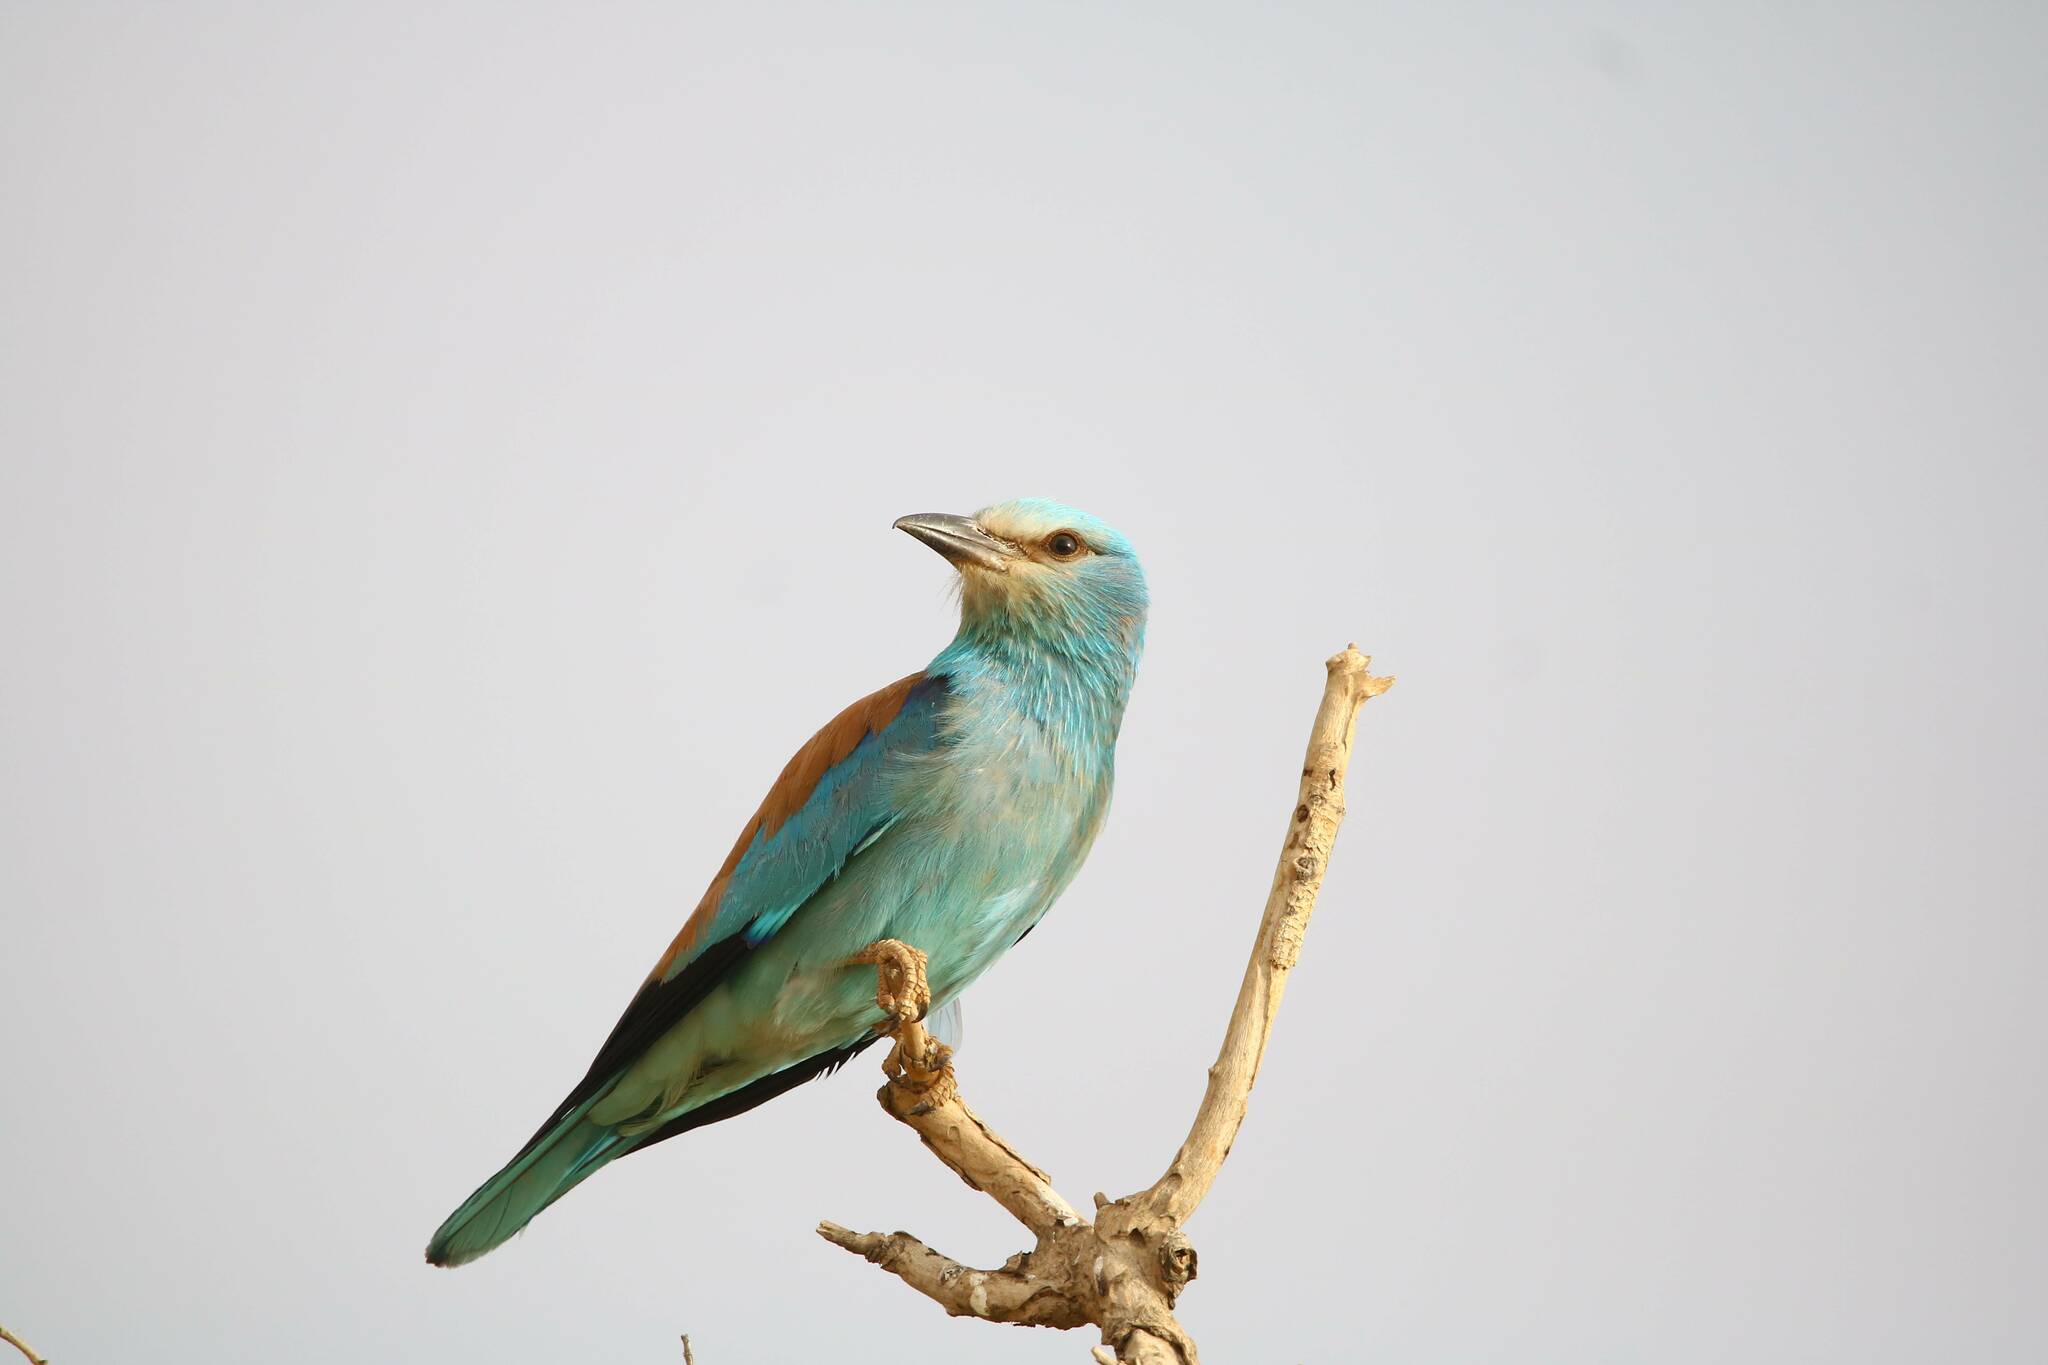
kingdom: Animalia
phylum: Chordata
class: Aves
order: Coraciiformes
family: Coraciidae
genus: Coracias
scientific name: Coracias garrulus
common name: European roller
